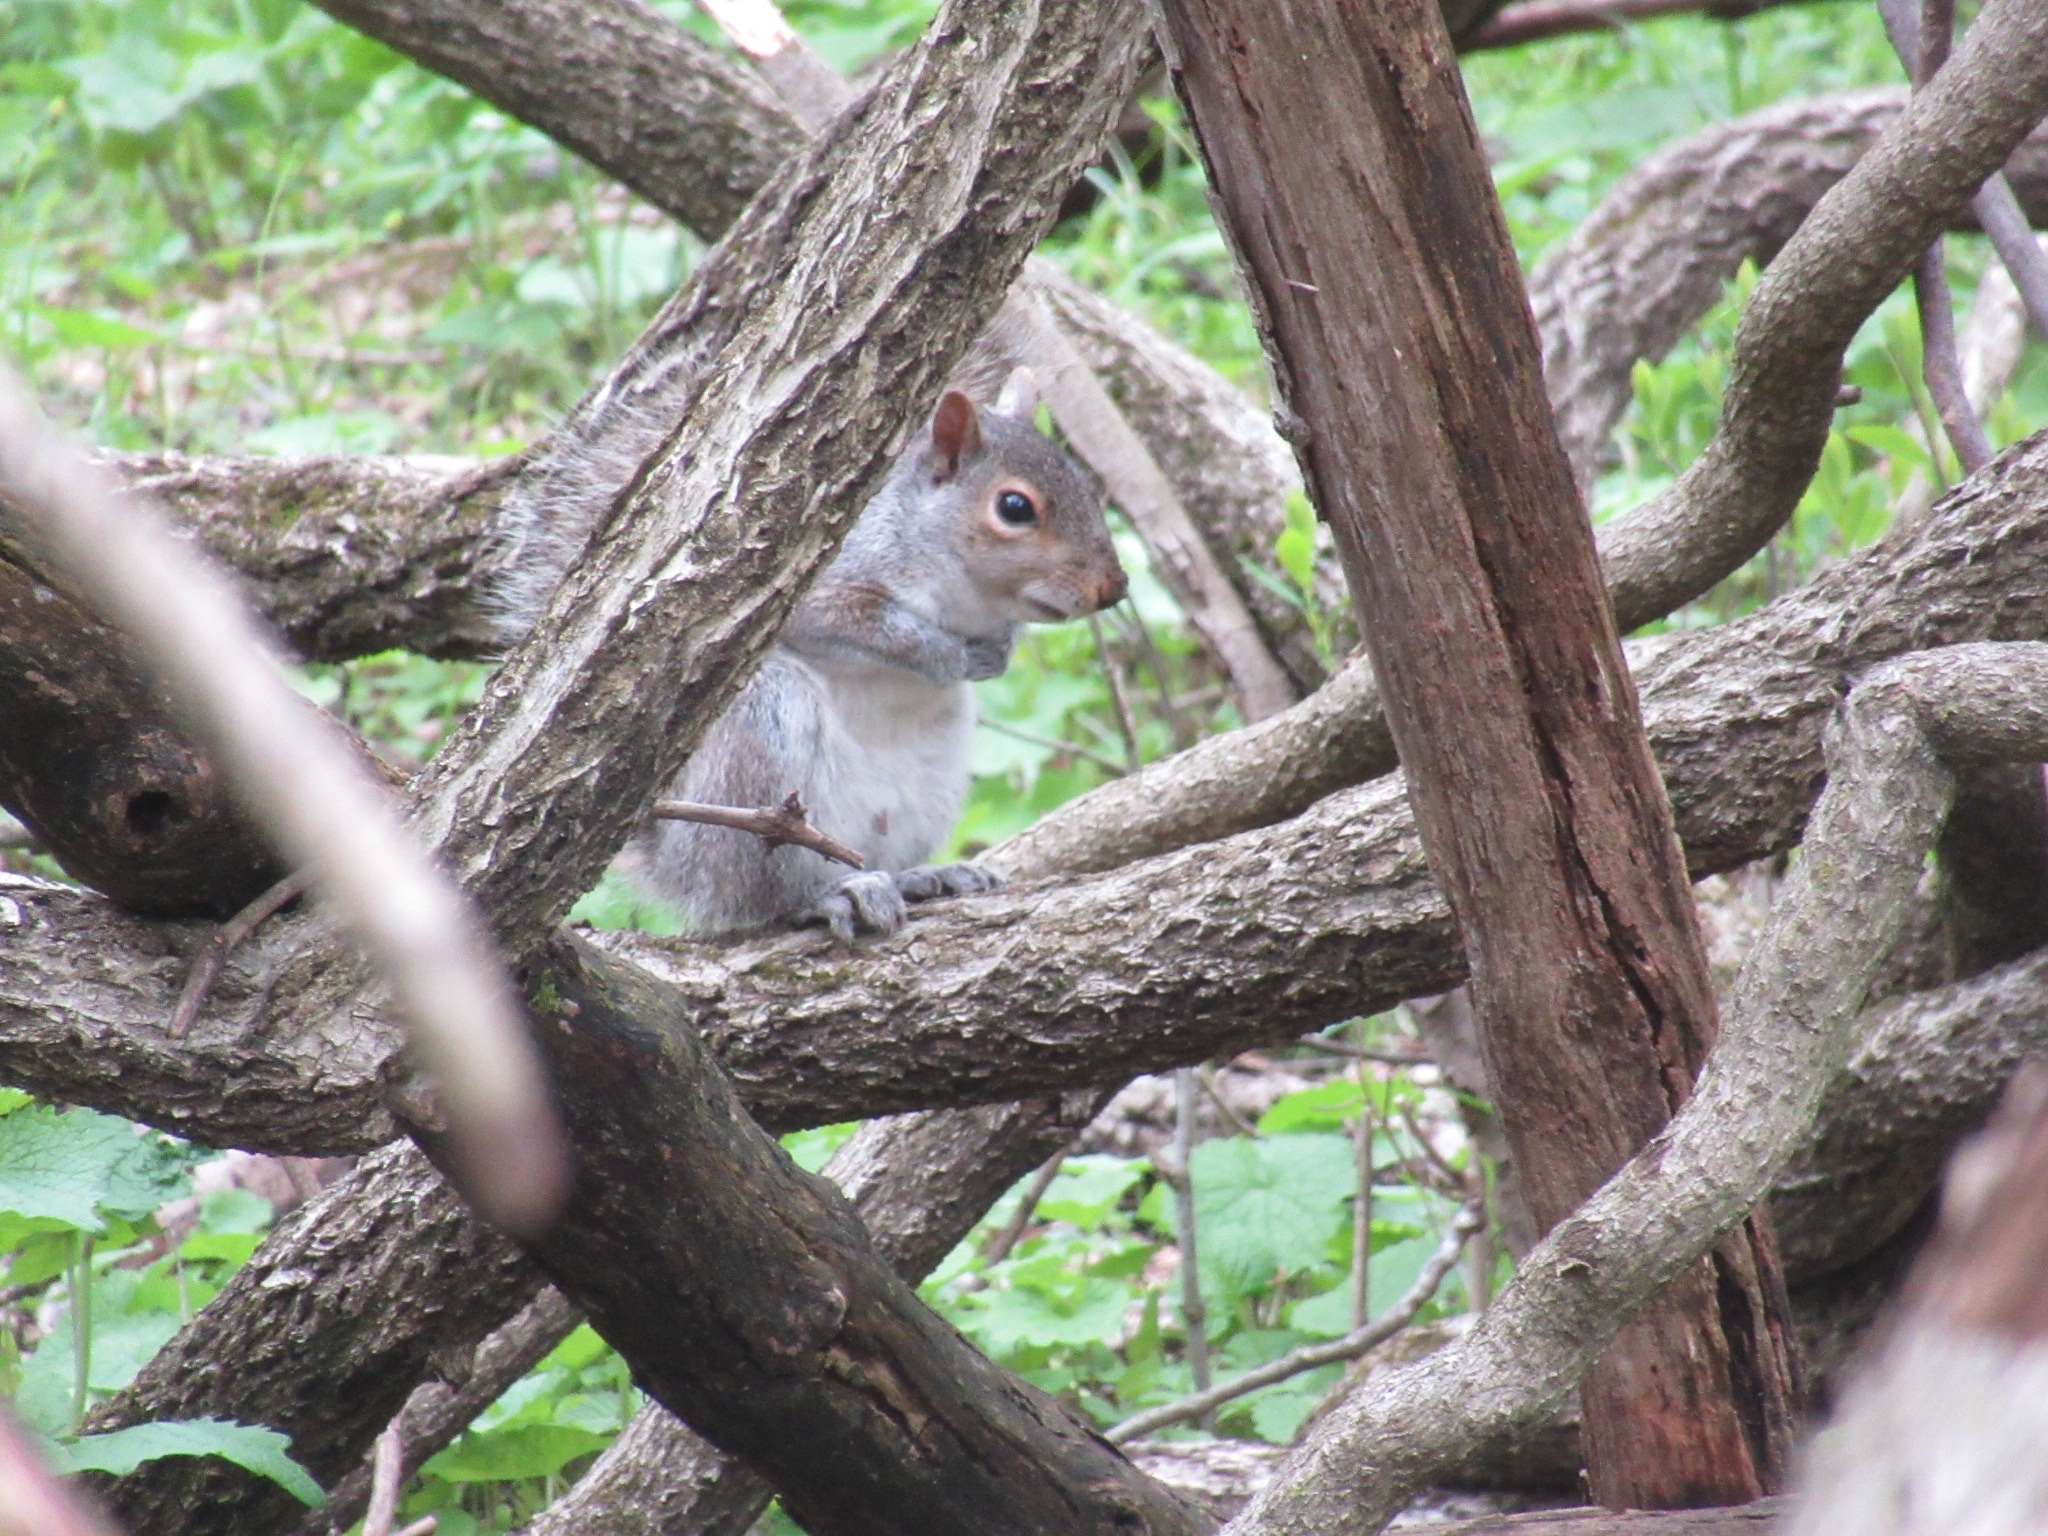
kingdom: Animalia
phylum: Chordata
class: Mammalia
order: Rodentia
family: Sciuridae
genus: Sciurus
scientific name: Sciurus carolinensis
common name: Eastern gray squirrel
